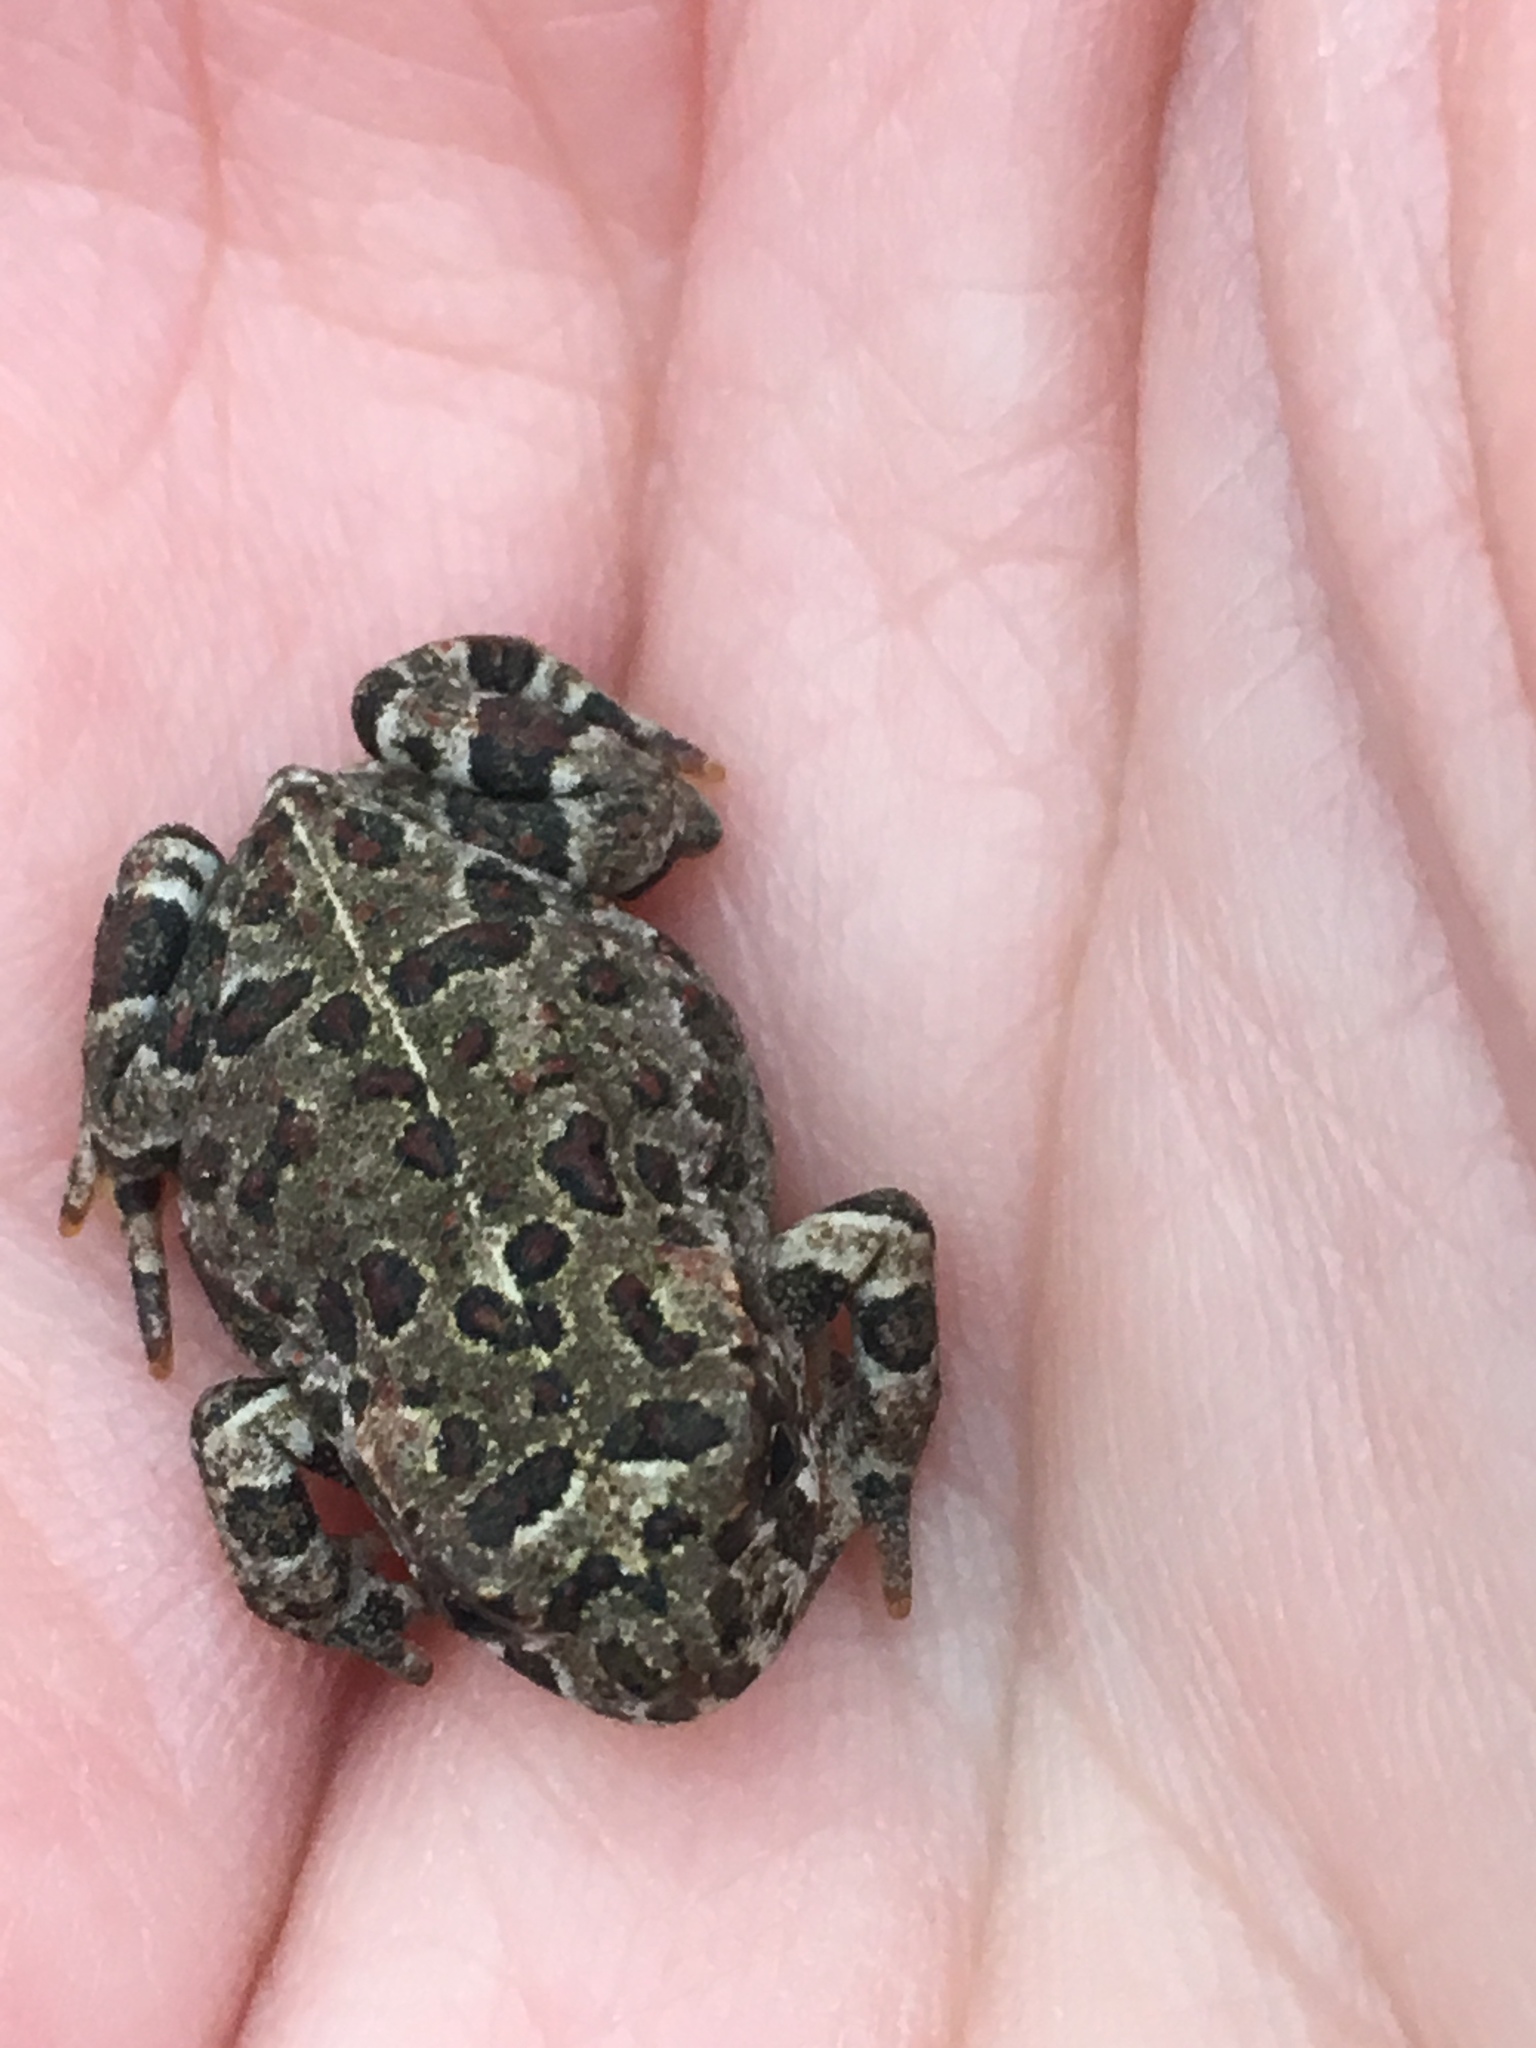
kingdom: Animalia
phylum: Chordata
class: Amphibia
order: Anura
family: Bufonidae
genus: Anaxyrus
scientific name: Anaxyrus boreas
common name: Western toad
